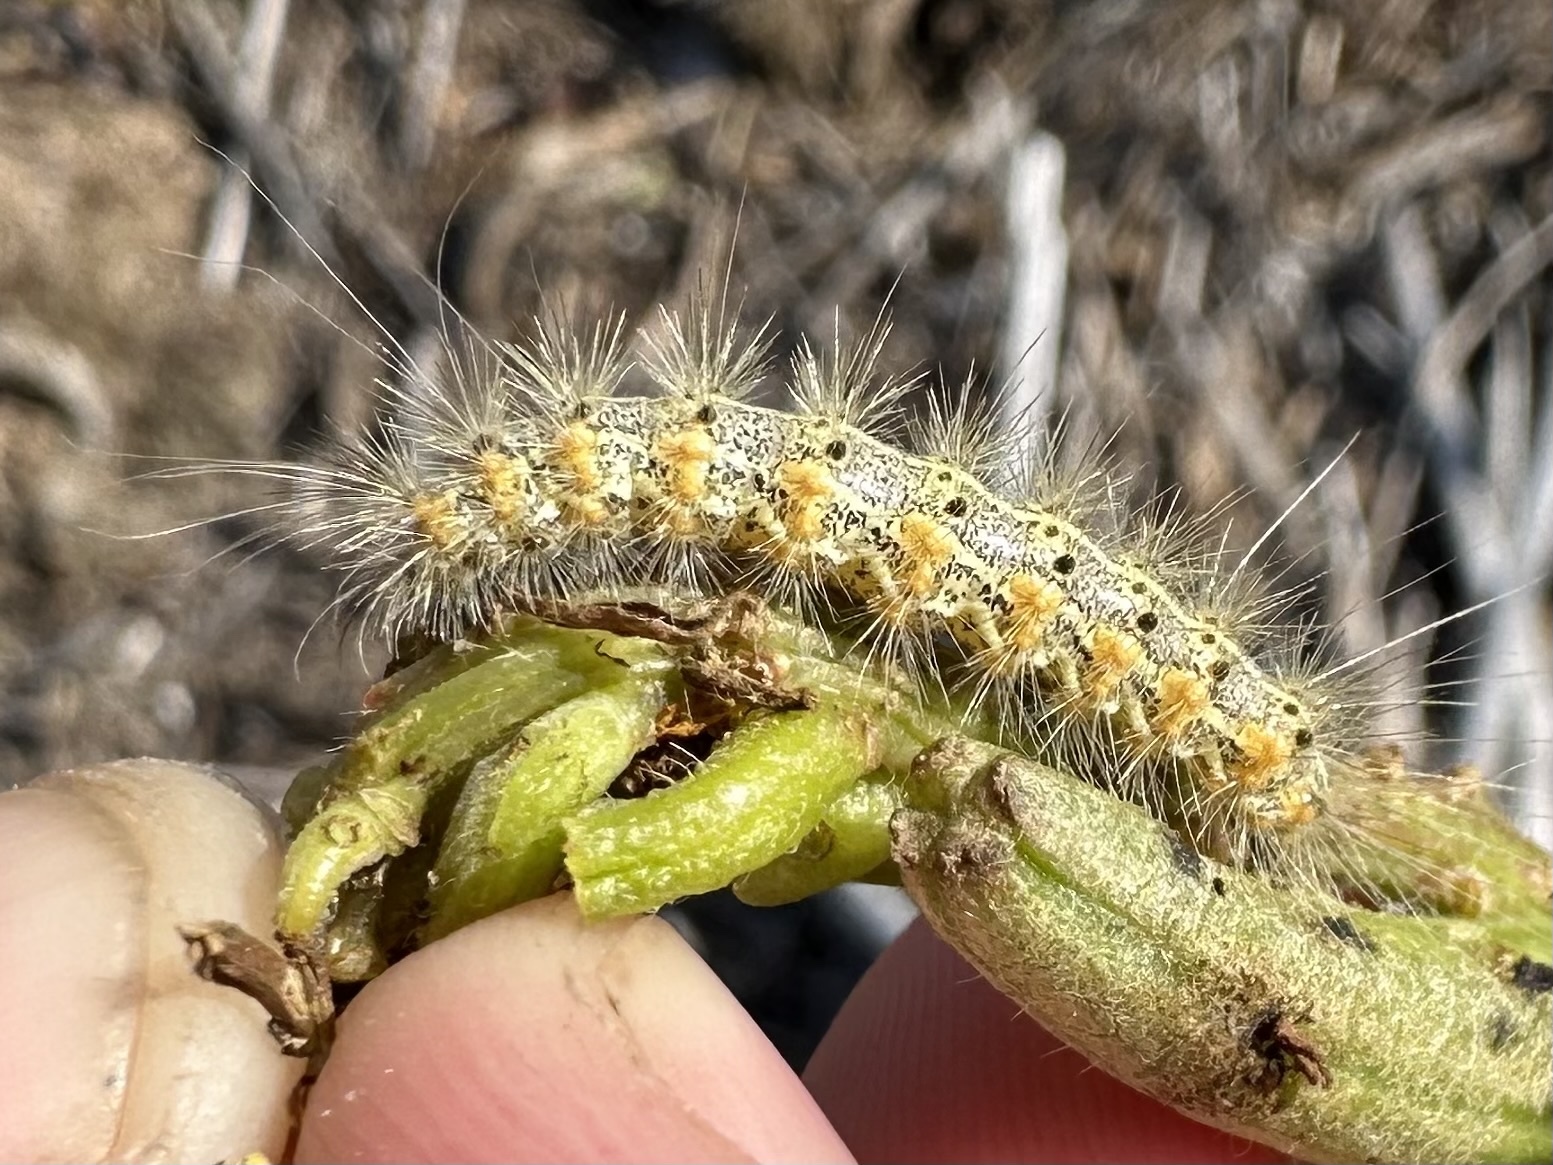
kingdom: Animalia
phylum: Arthropoda
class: Insecta
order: Lepidoptera
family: Erebidae
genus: Estigmene
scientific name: Estigmene acrea
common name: Salt marsh moth
